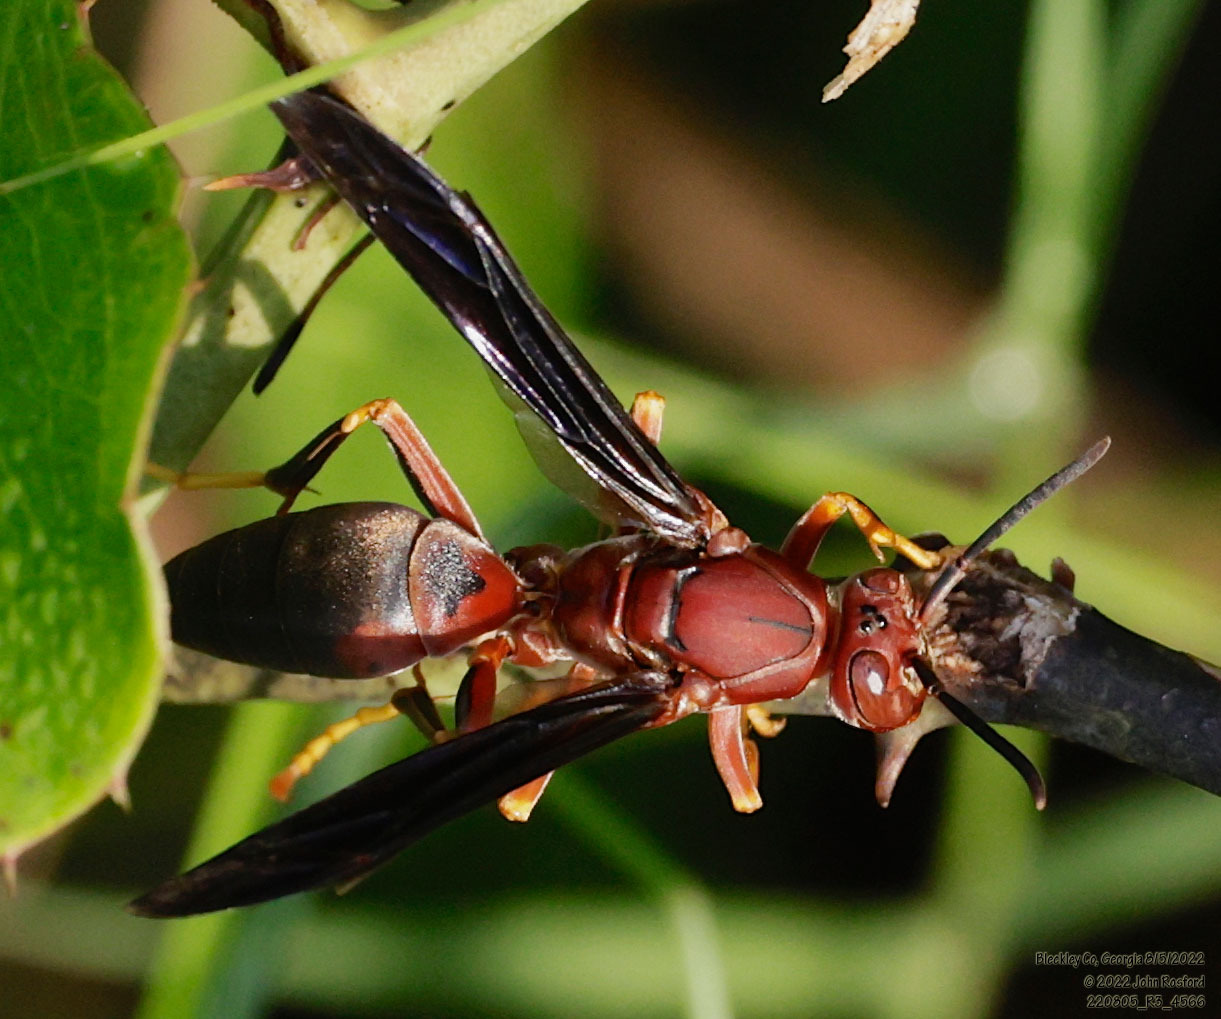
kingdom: Animalia
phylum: Arthropoda
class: Insecta
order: Hymenoptera
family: Eumenidae
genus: Polistes
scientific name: Polistes metricus
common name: Metric paper wasp
